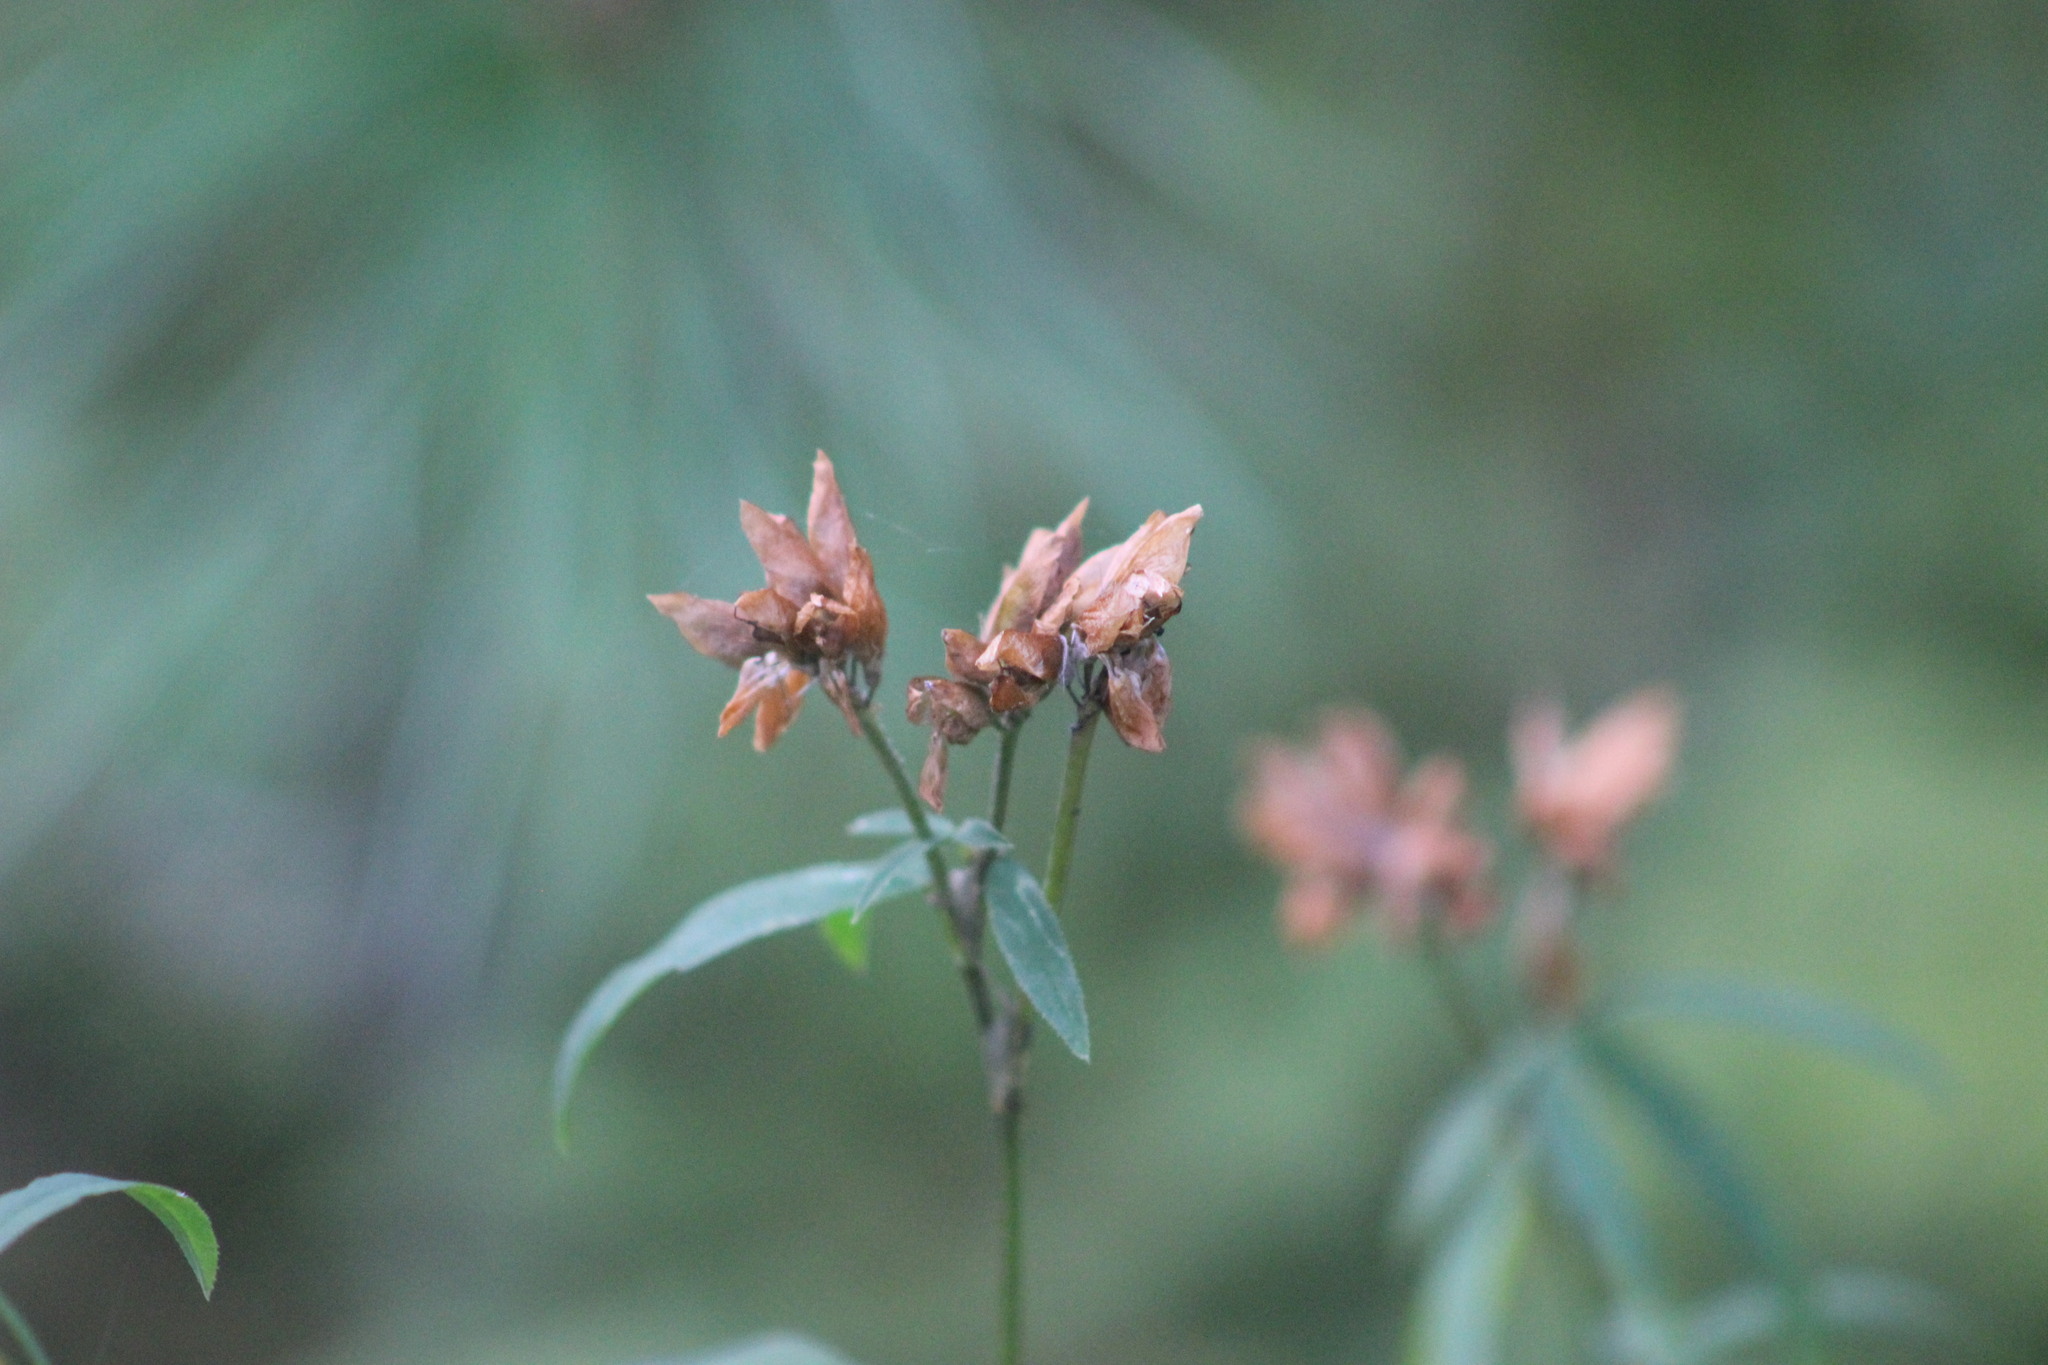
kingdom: Plantae
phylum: Tracheophyta
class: Magnoliopsida
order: Fabales
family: Fabaceae
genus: Trifolium
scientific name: Trifolium lupinaster
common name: Lupine clover
